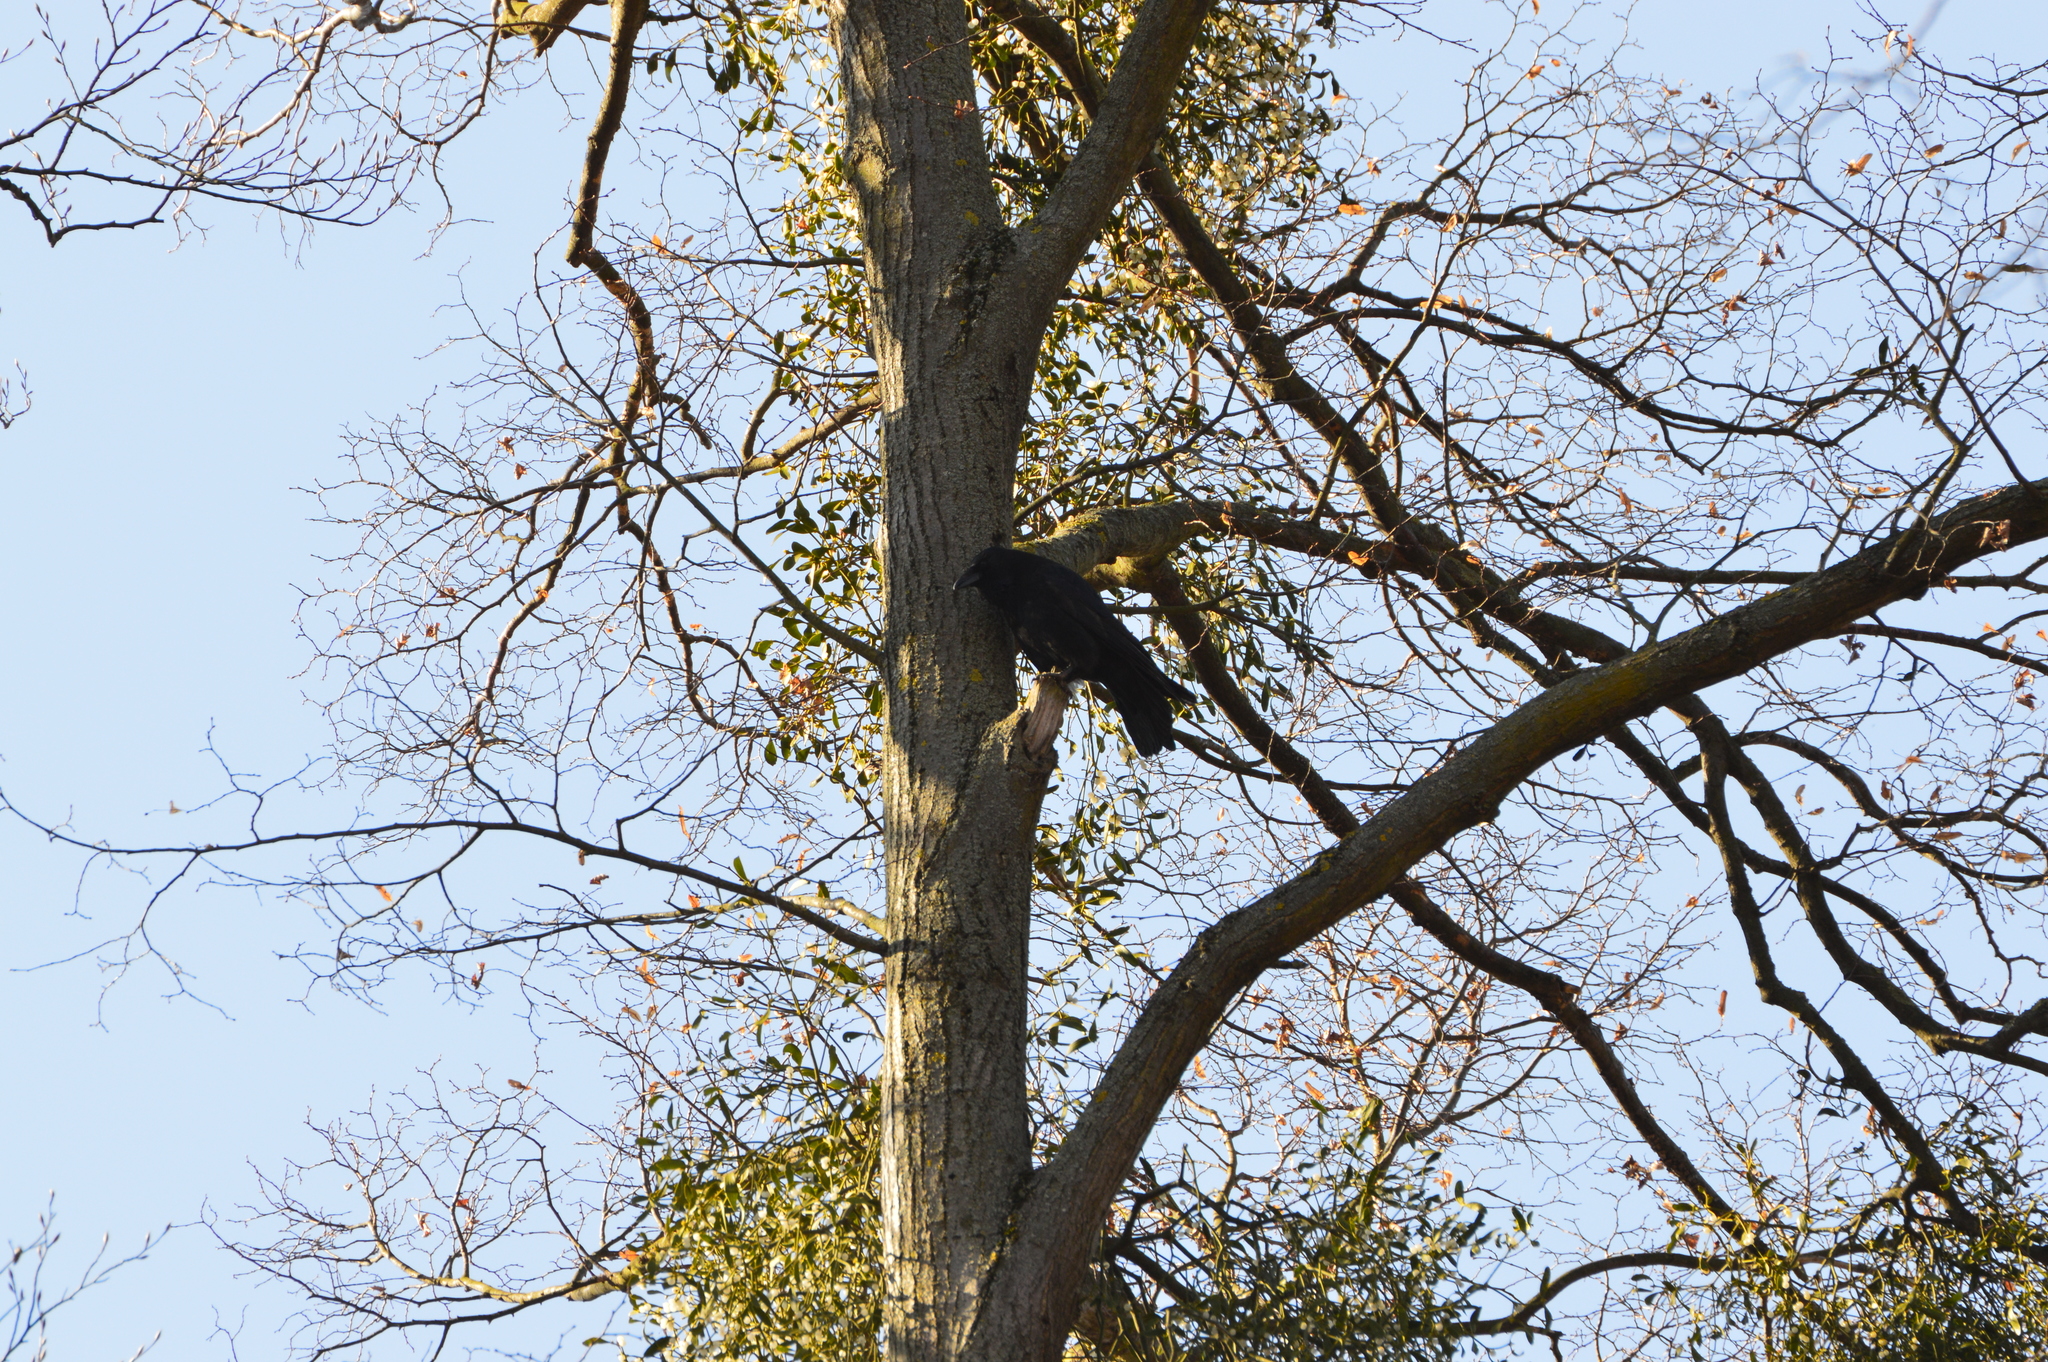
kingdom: Animalia
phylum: Chordata
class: Aves
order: Passeriformes
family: Corvidae
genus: Corvus
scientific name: Corvus corone
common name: Carrion crow
